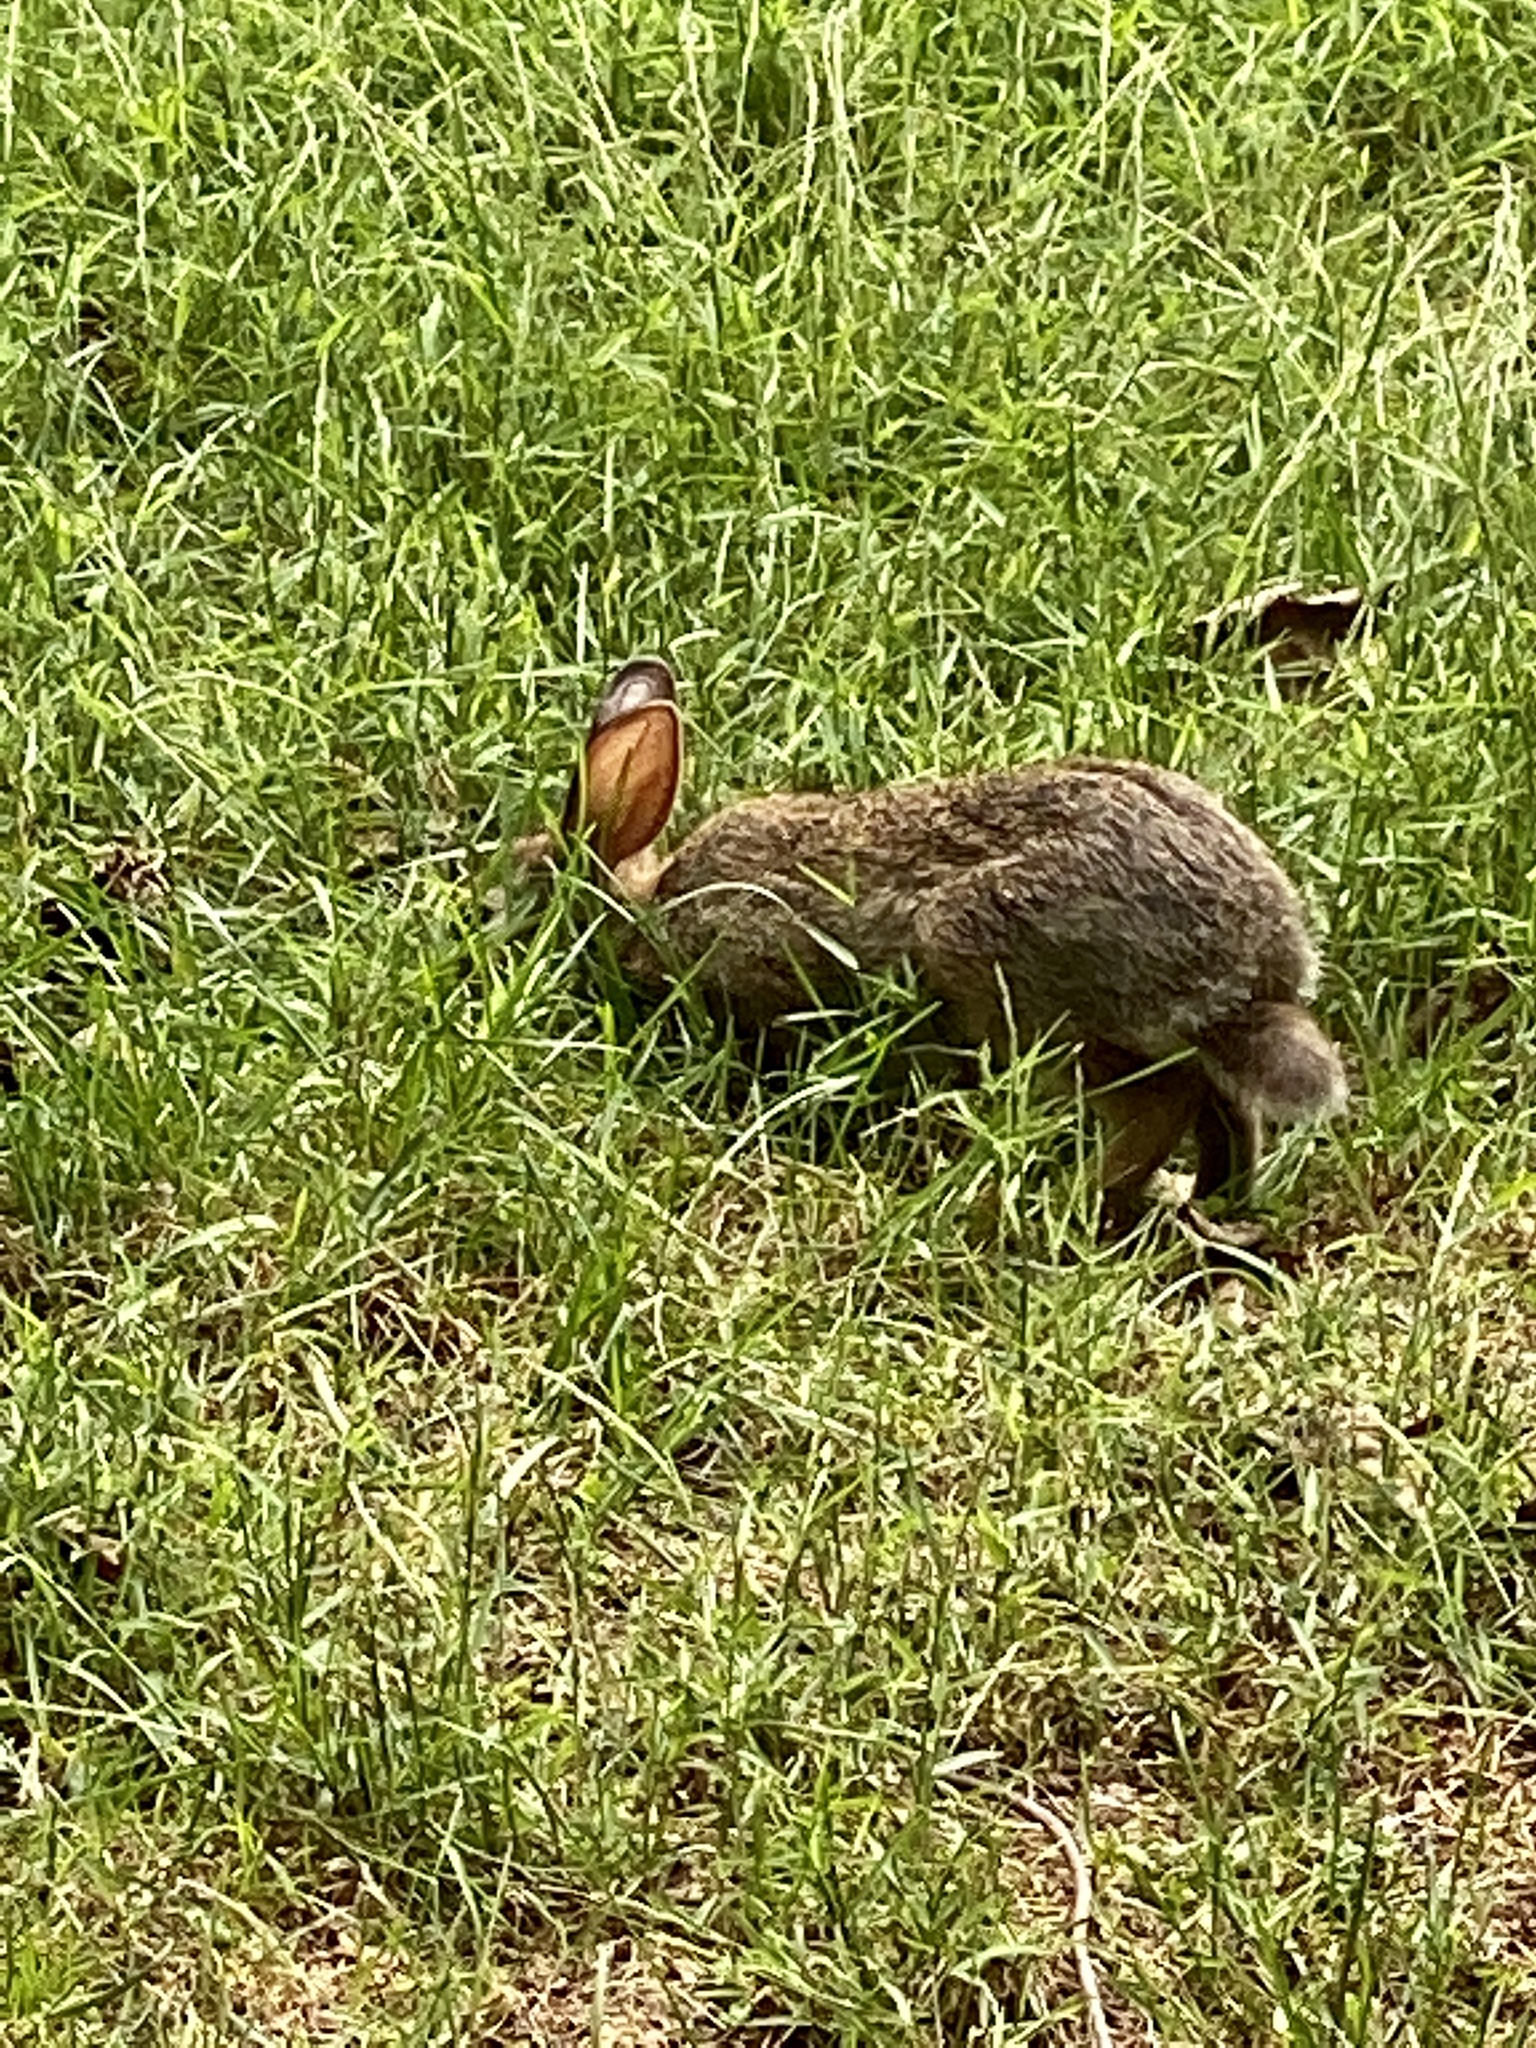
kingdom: Animalia
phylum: Chordata
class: Mammalia
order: Lagomorpha
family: Leporidae
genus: Sylvilagus
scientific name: Sylvilagus floridanus
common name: Eastern cottontail
